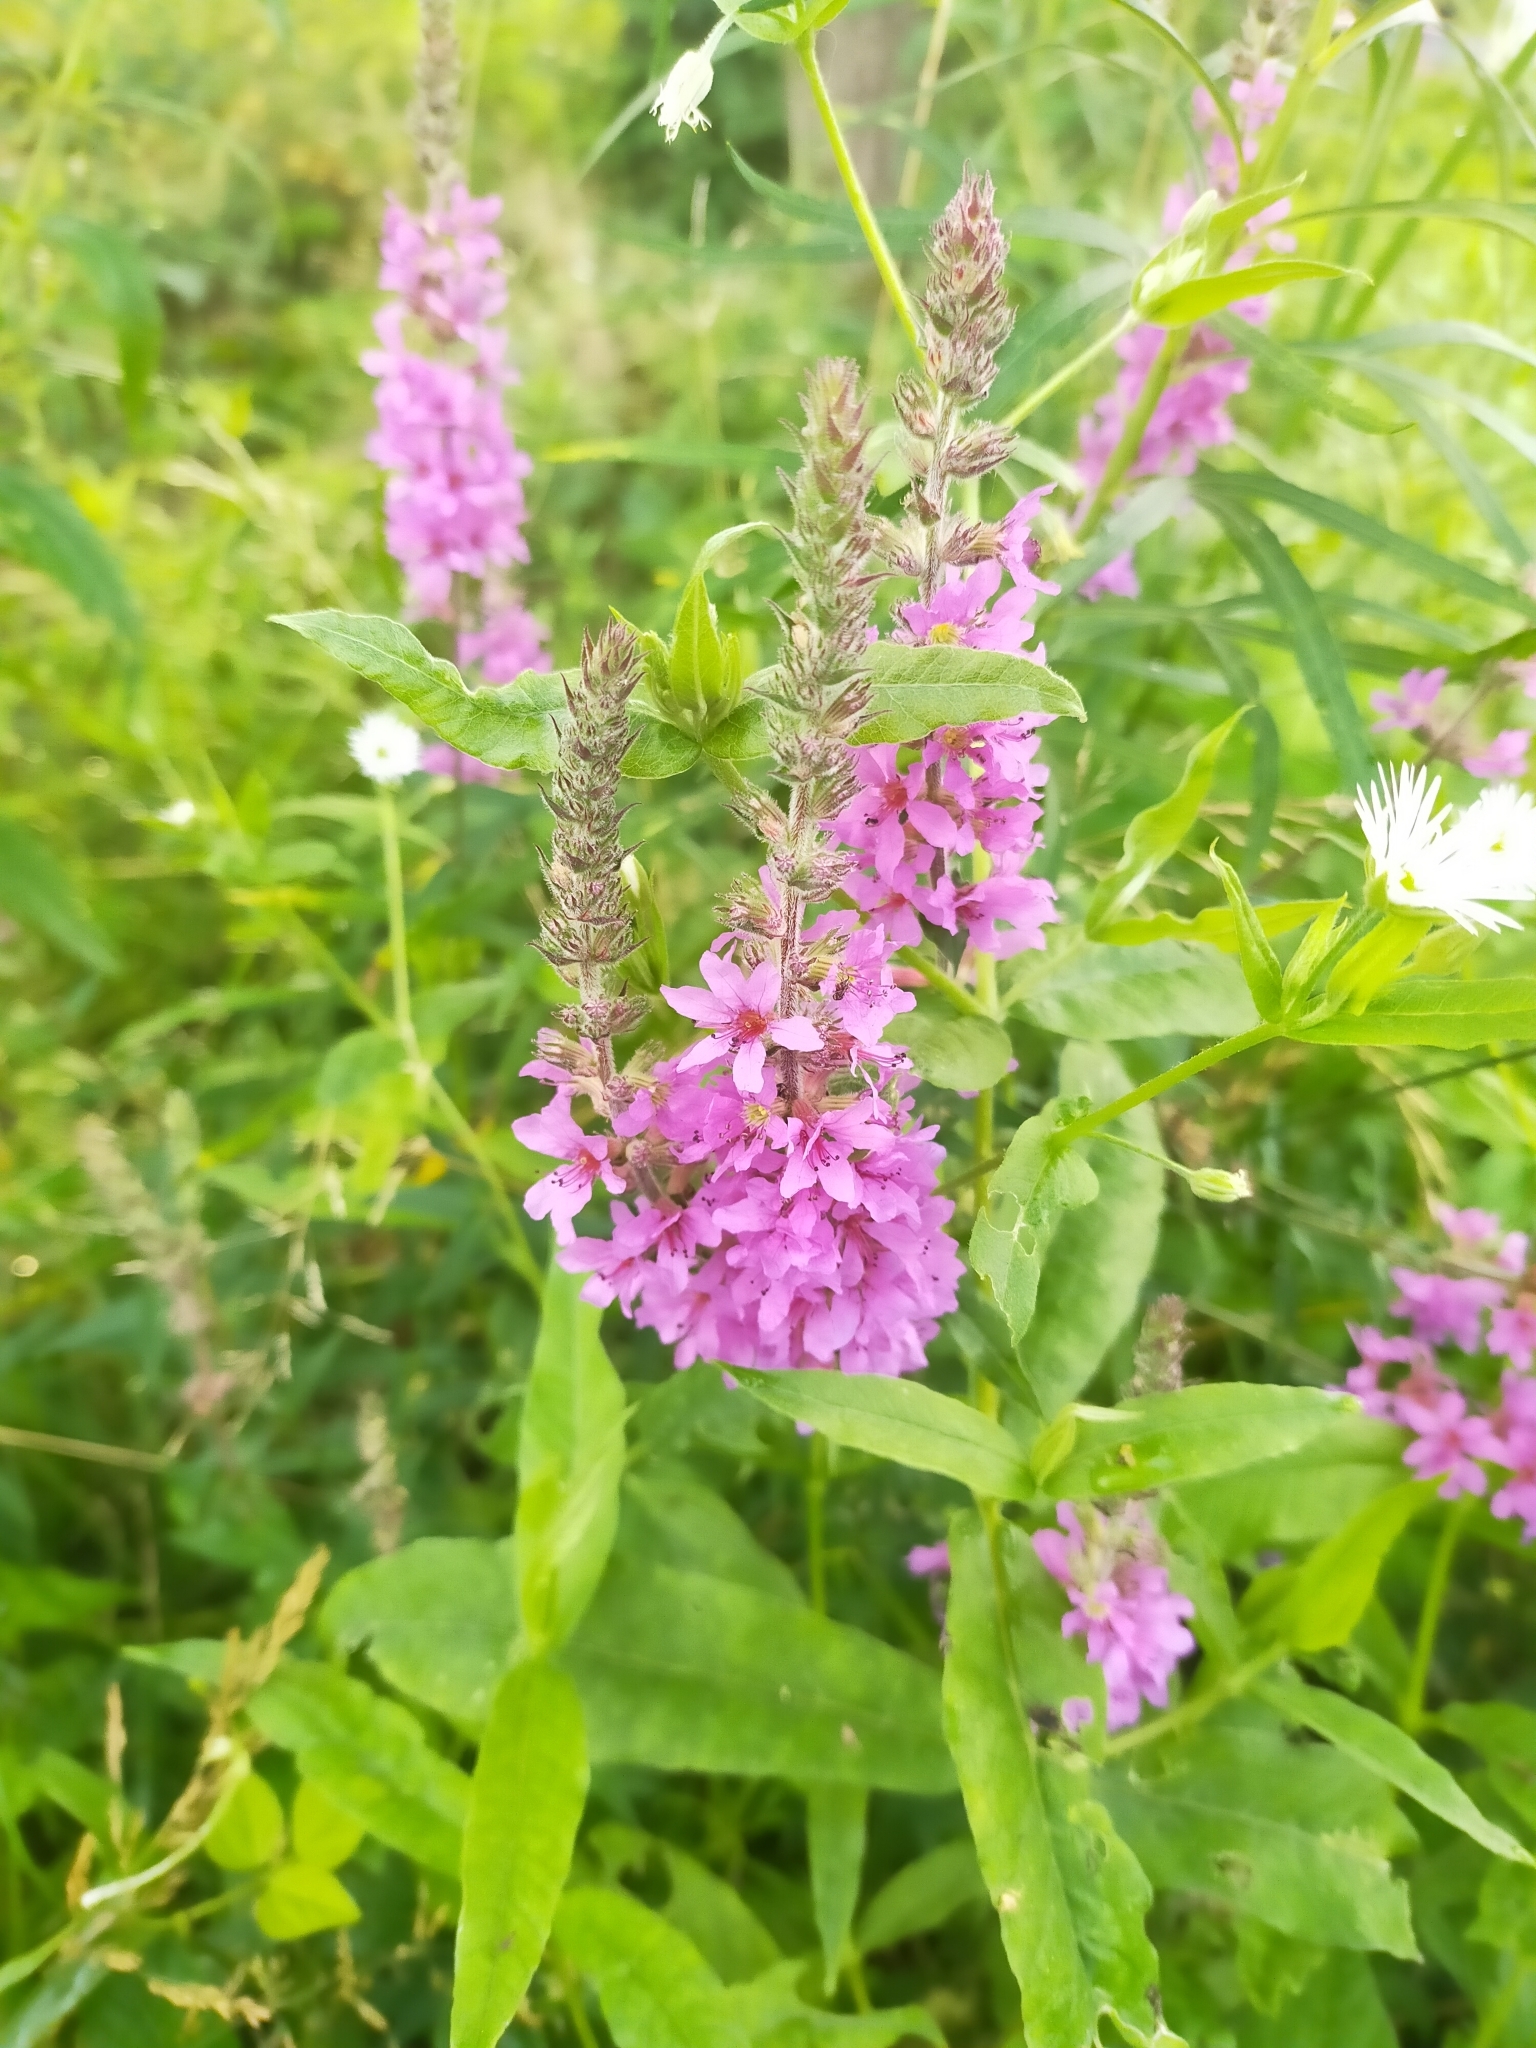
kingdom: Plantae
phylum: Tracheophyta
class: Magnoliopsida
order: Myrtales
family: Lythraceae
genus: Lythrum
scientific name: Lythrum salicaria
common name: Purple loosestrife
